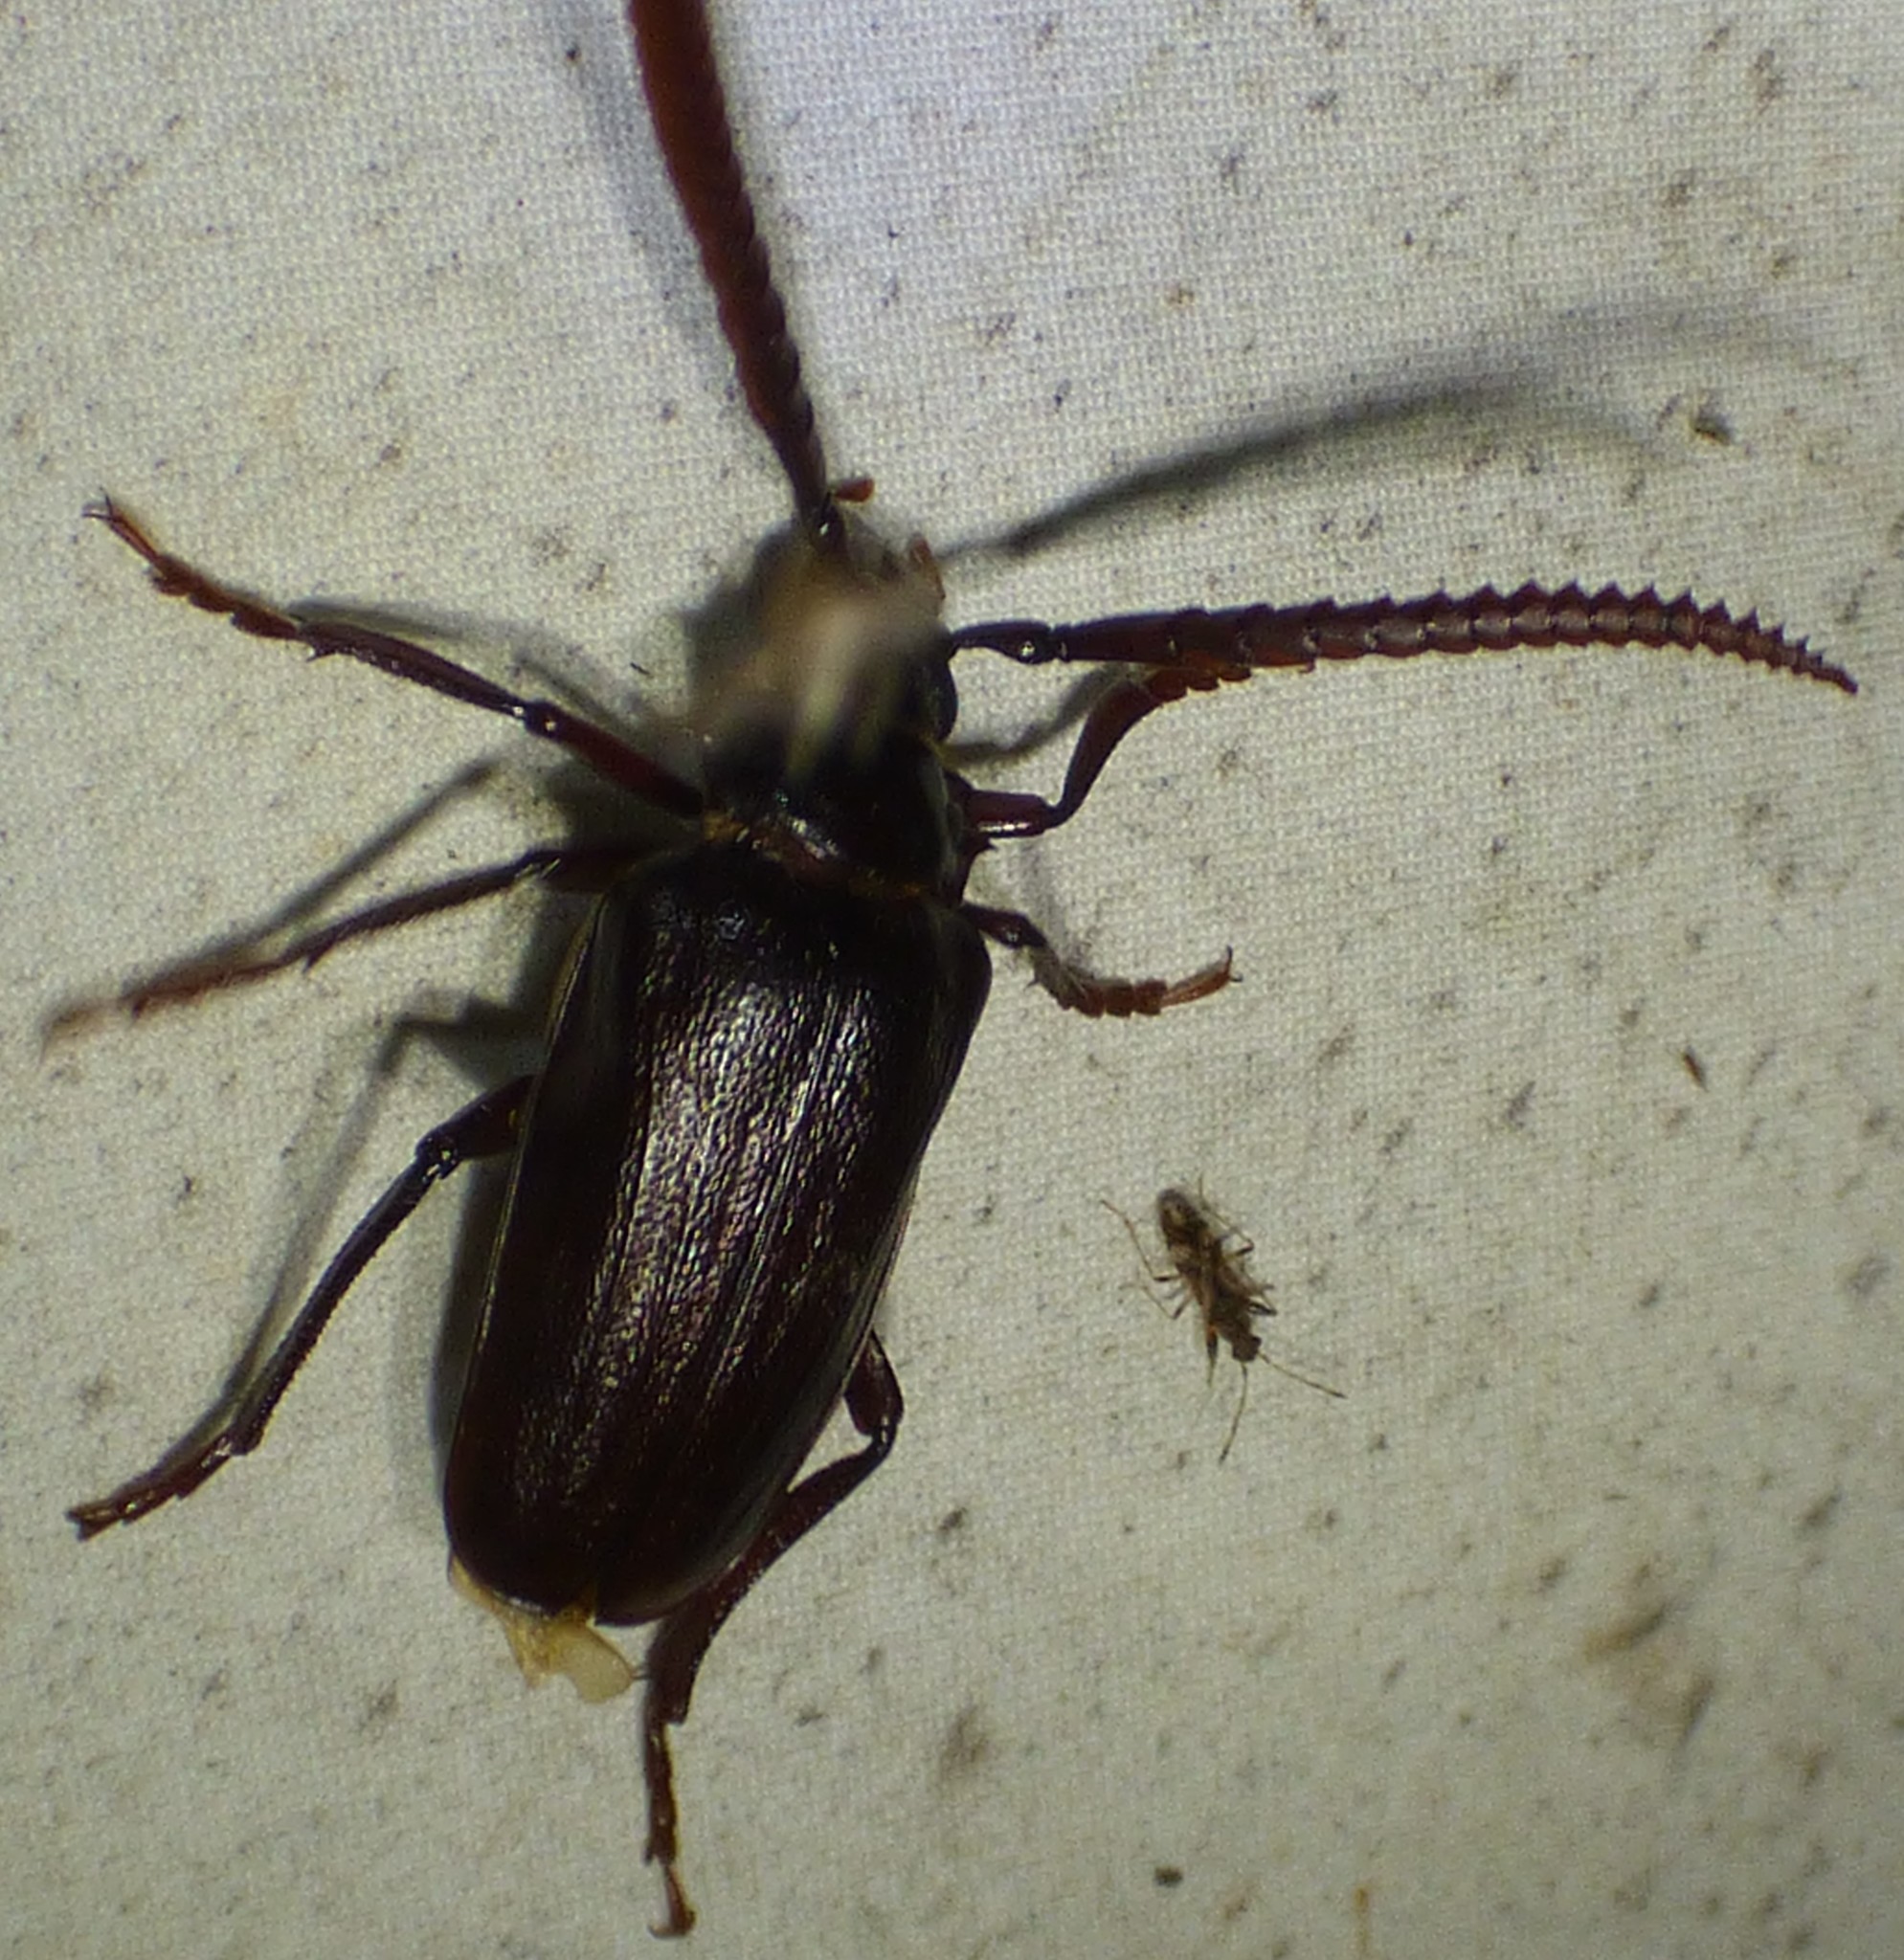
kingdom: Animalia
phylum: Arthropoda
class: Insecta
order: Coleoptera
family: Cerambycidae
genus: Prionus
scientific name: Prionus imbricornis
